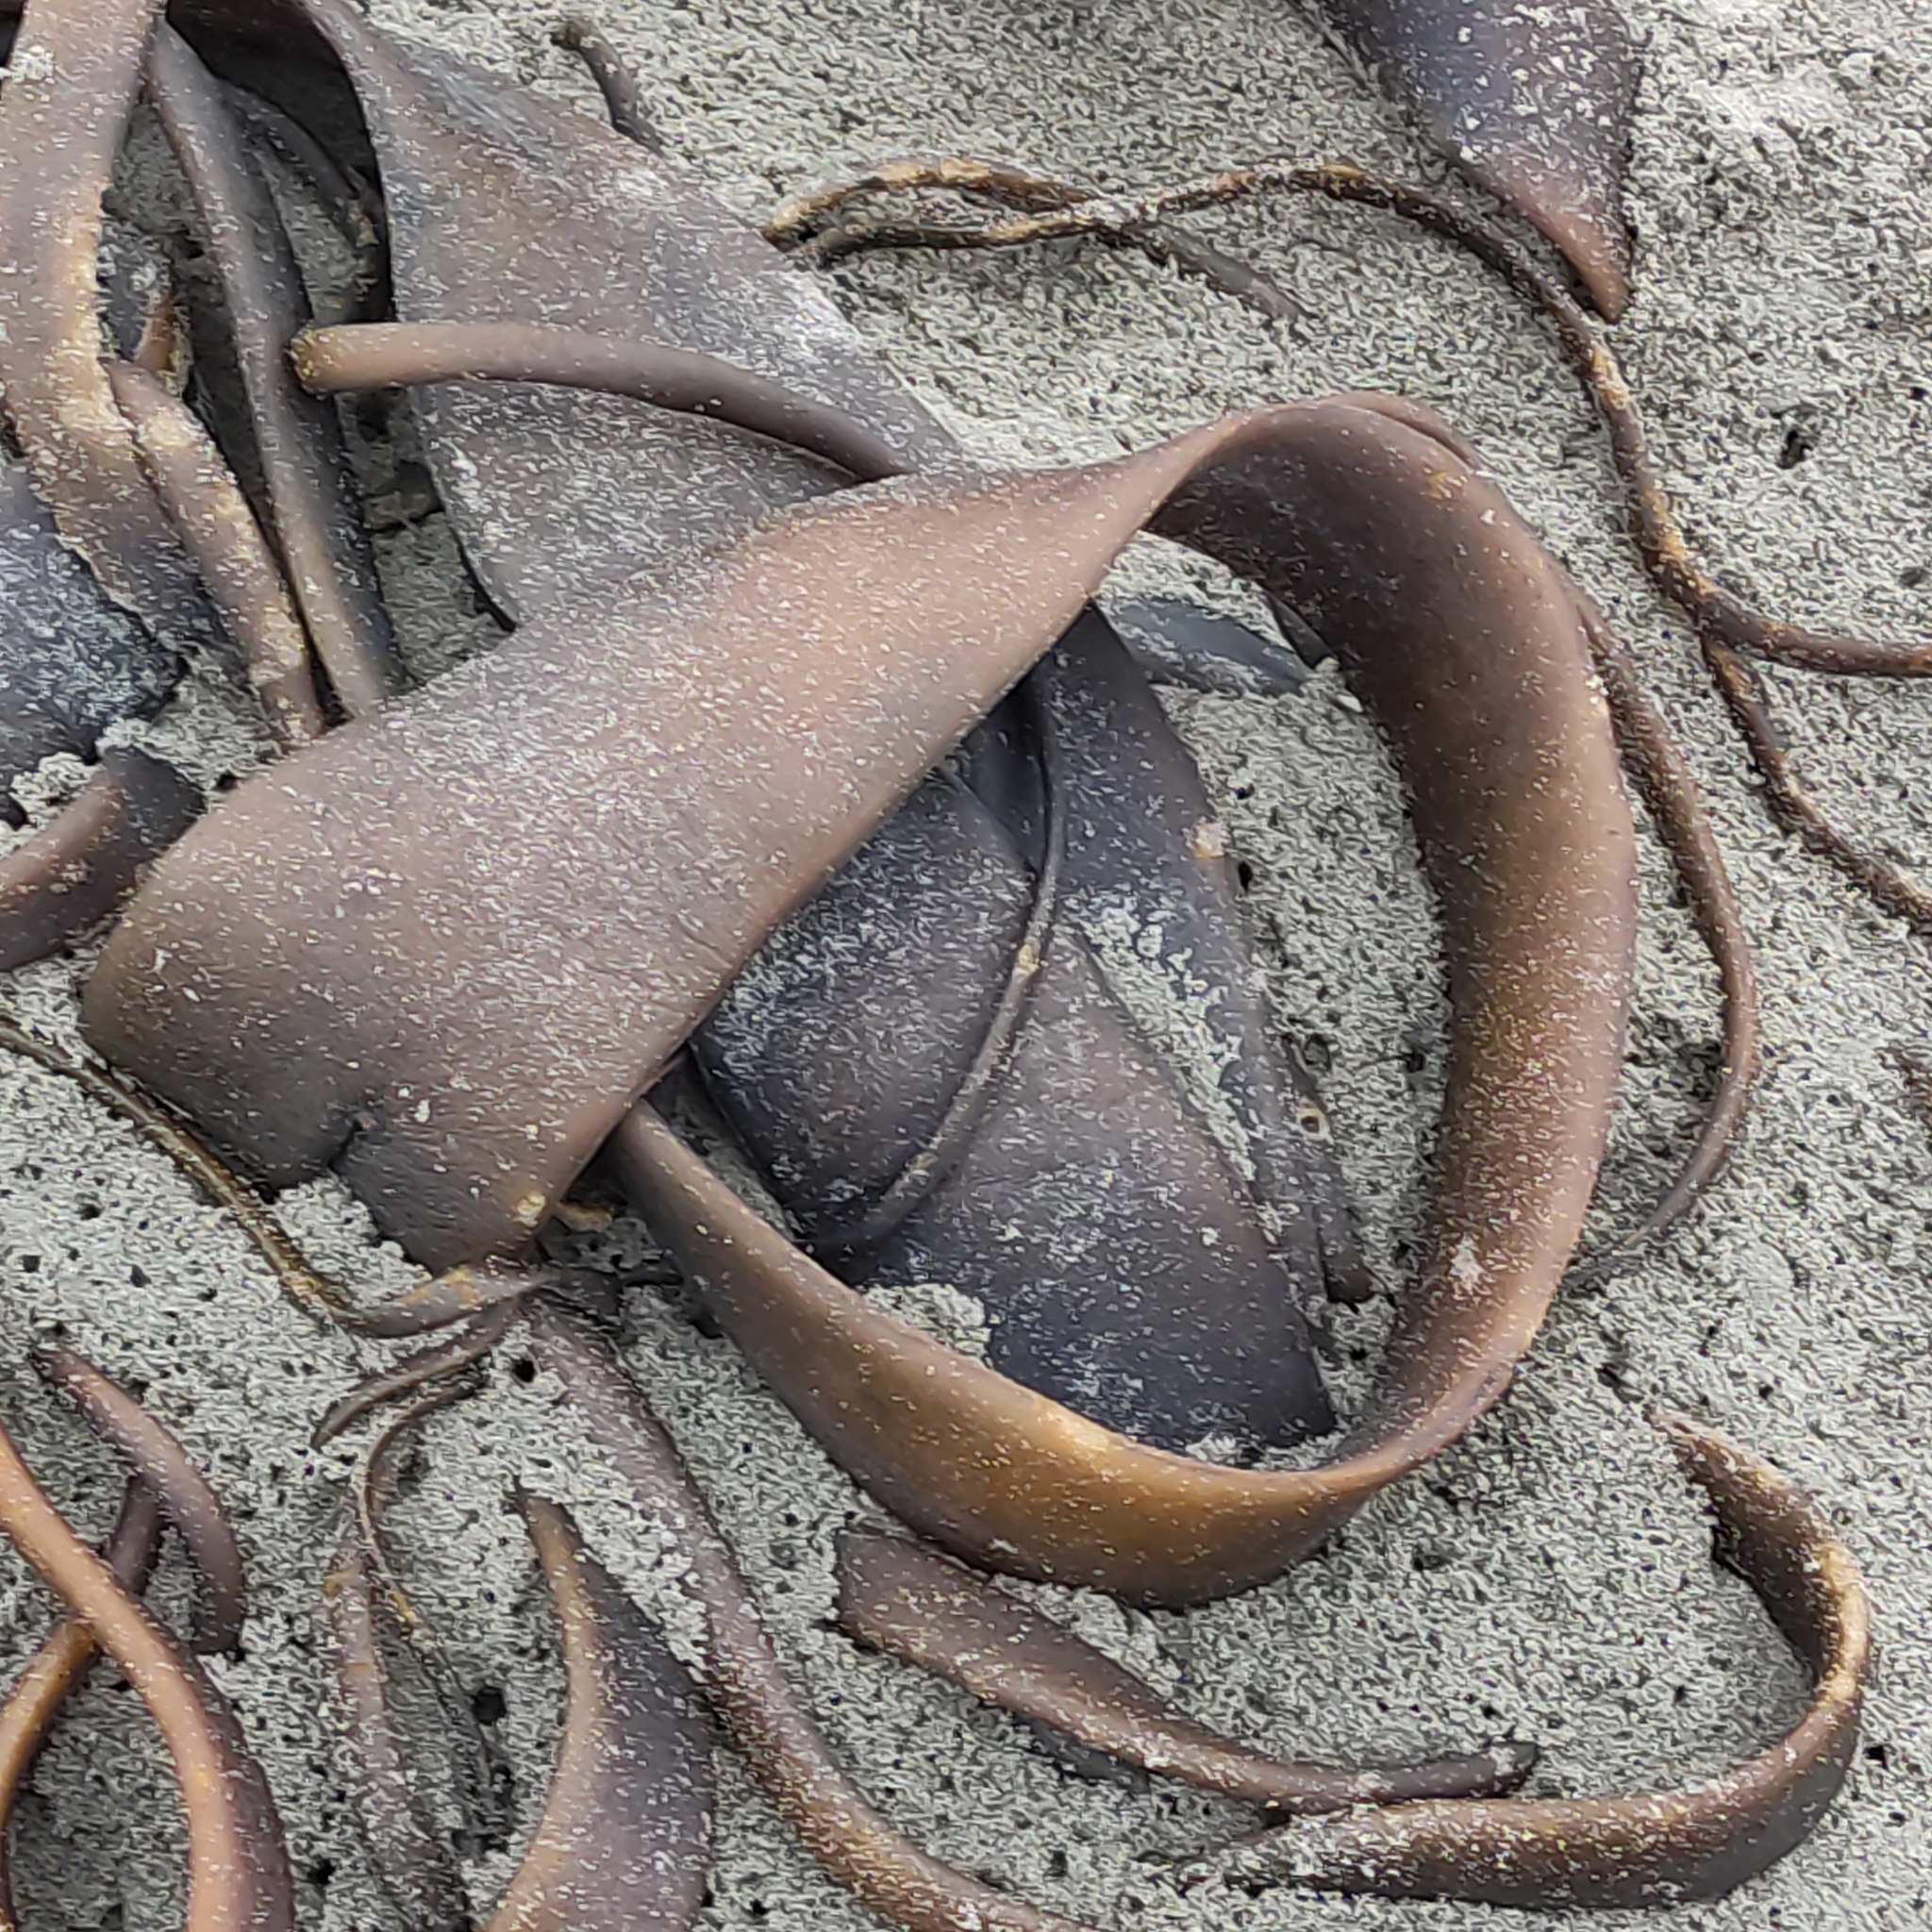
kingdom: Chromista
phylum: Ochrophyta
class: Phaeophyceae
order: Fucales
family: Durvillaeaceae
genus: Durvillaea
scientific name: Durvillaea antarctica
